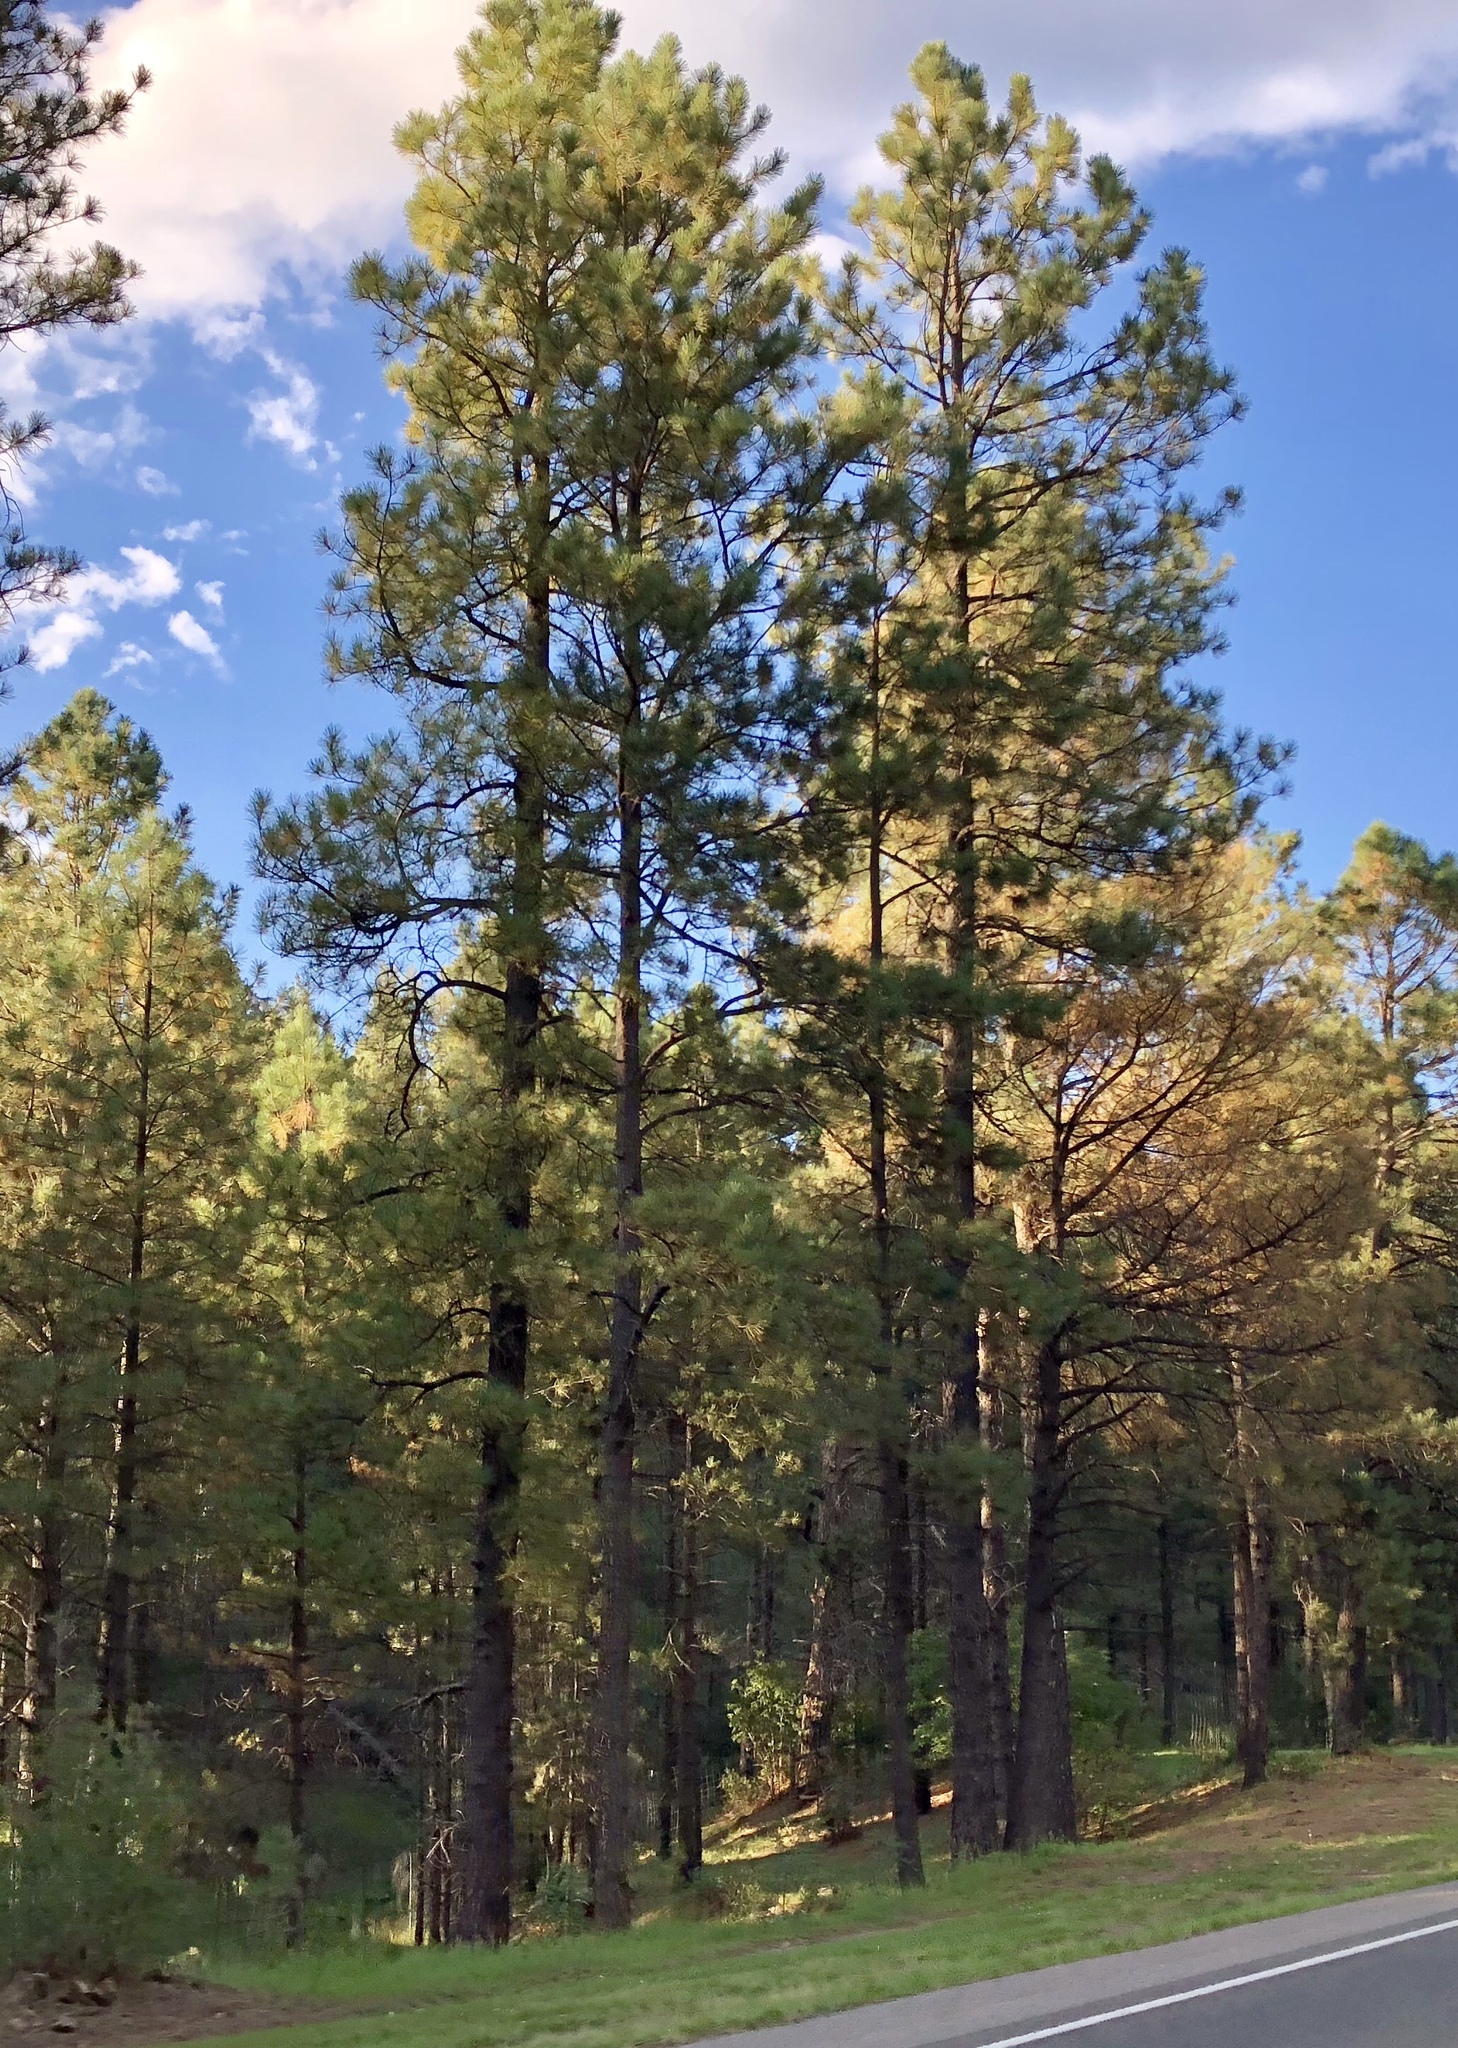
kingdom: Plantae
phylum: Tracheophyta
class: Pinopsida
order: Pinales
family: Pinaceae
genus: Pinus
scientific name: Pinus ponderosa
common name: Western yellow-pine
